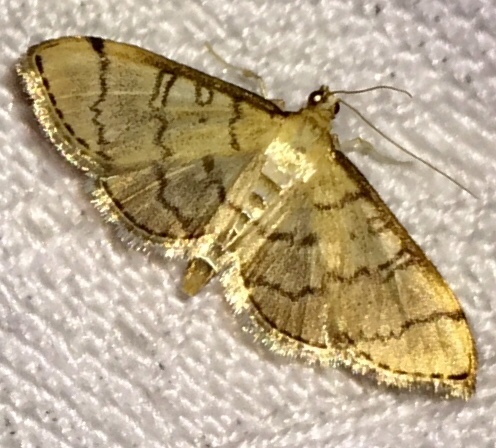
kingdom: Animalia
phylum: Arthropoda
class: Insecta
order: Lepidoptera
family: Crambidae
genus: Lamprosema
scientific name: Lamprosema Blepharomastix ranalis
